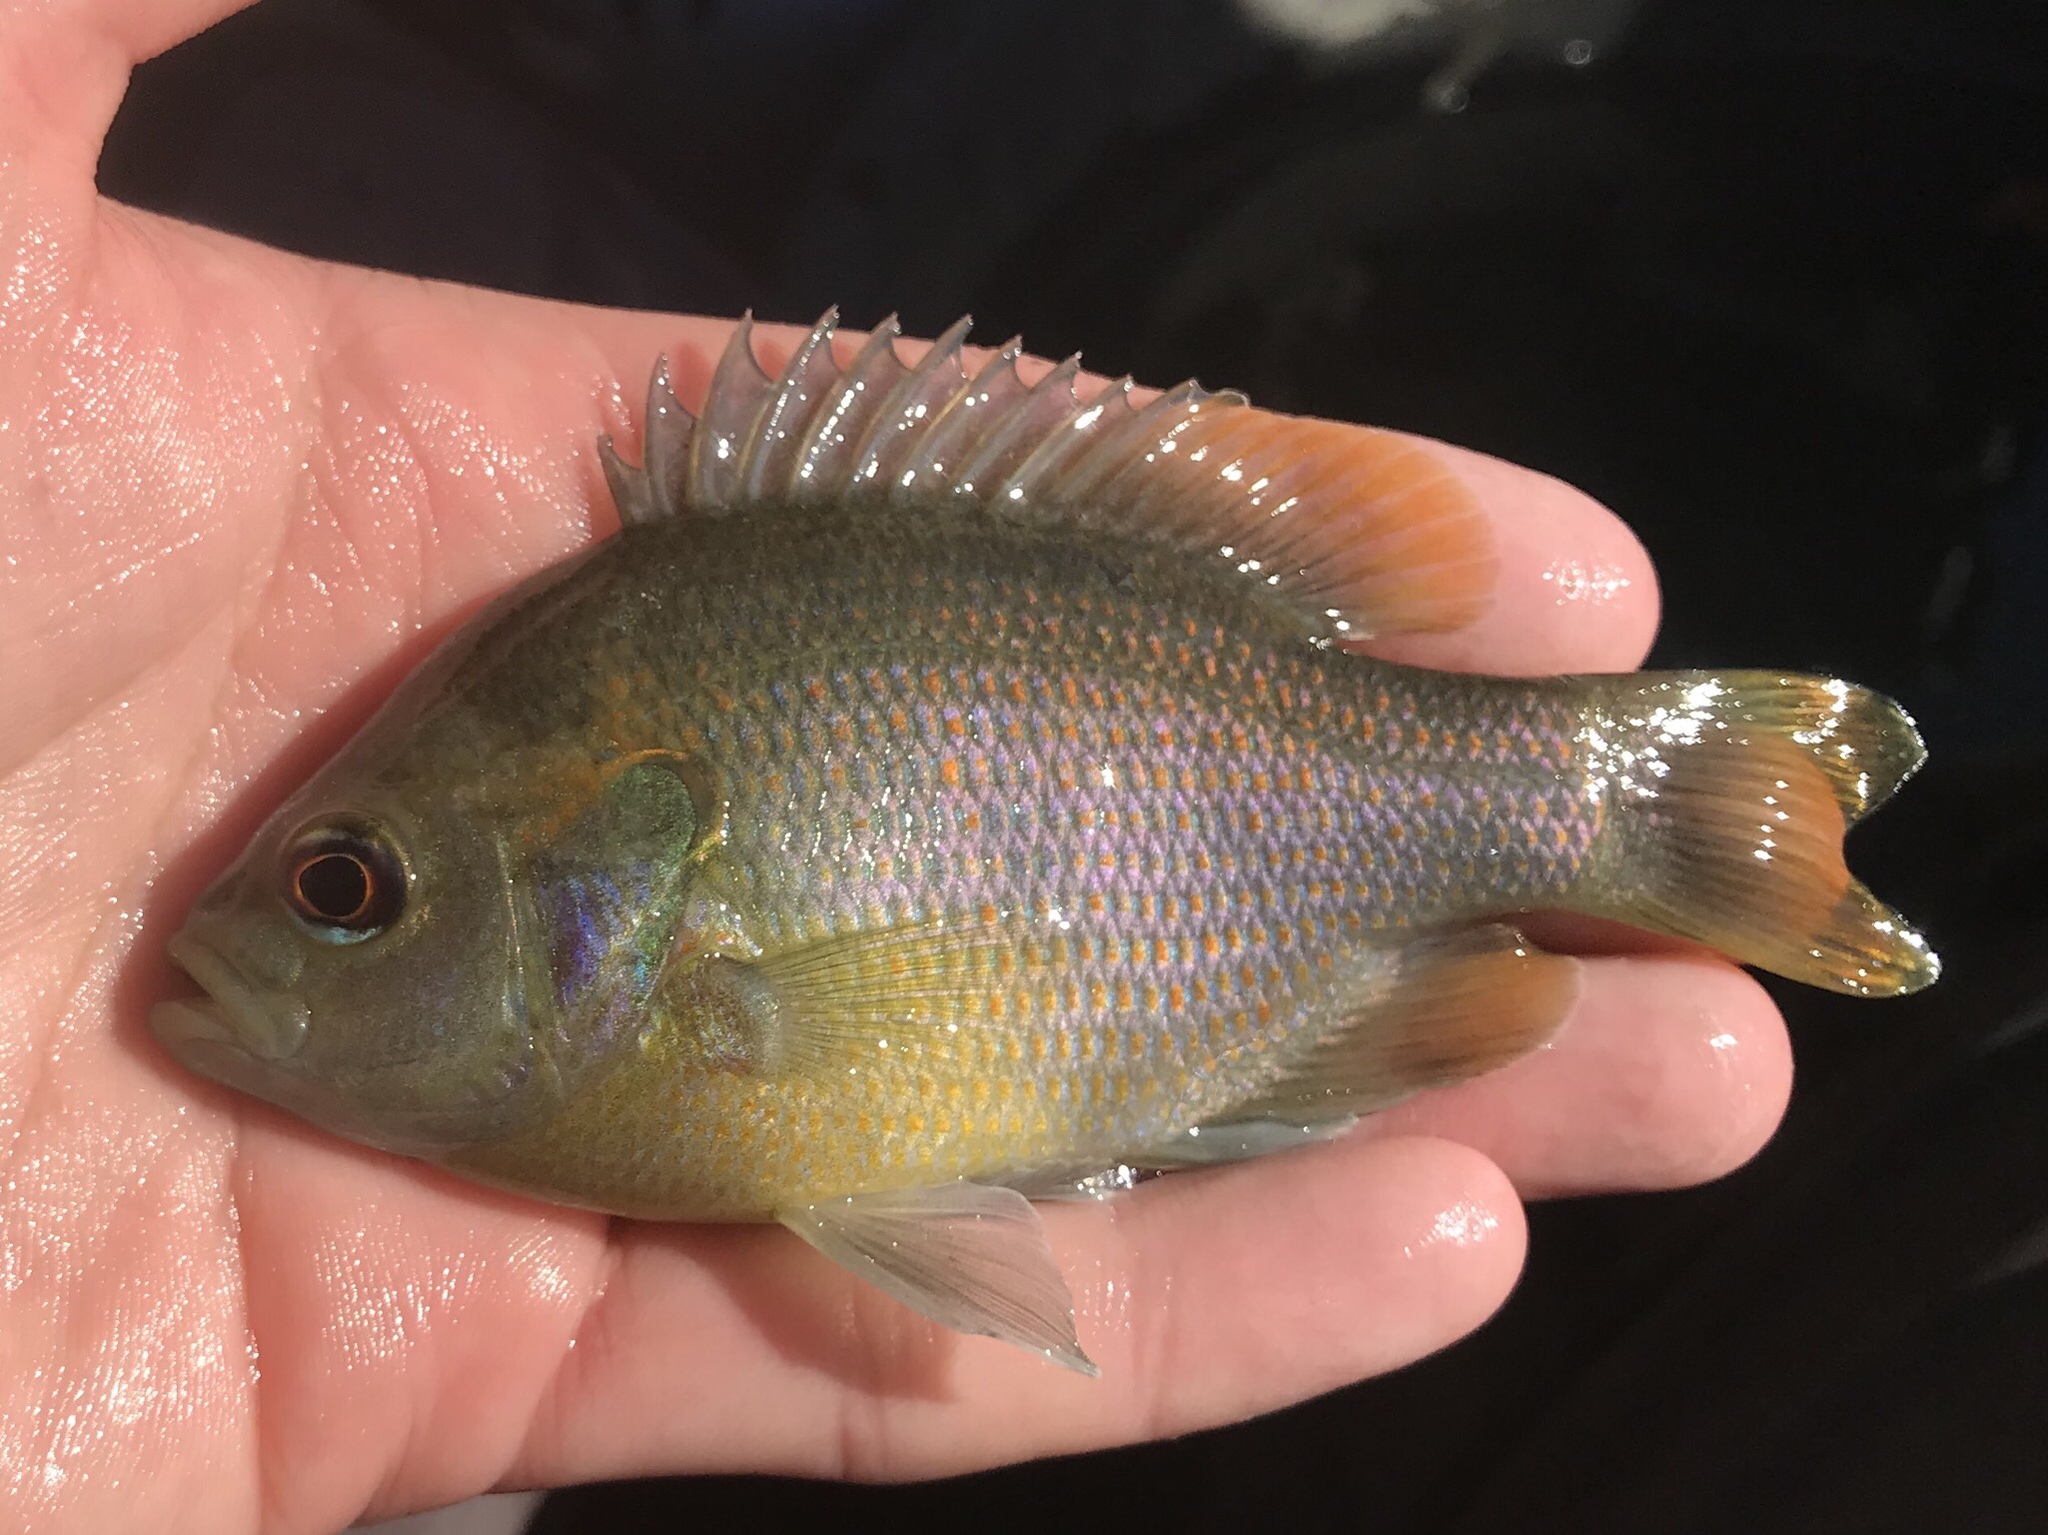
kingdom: Animalia
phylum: Chordata
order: Perciformes
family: Centrarchidae
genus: Lepomis
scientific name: Lepomis miniatus
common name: Redspotted sunfish
